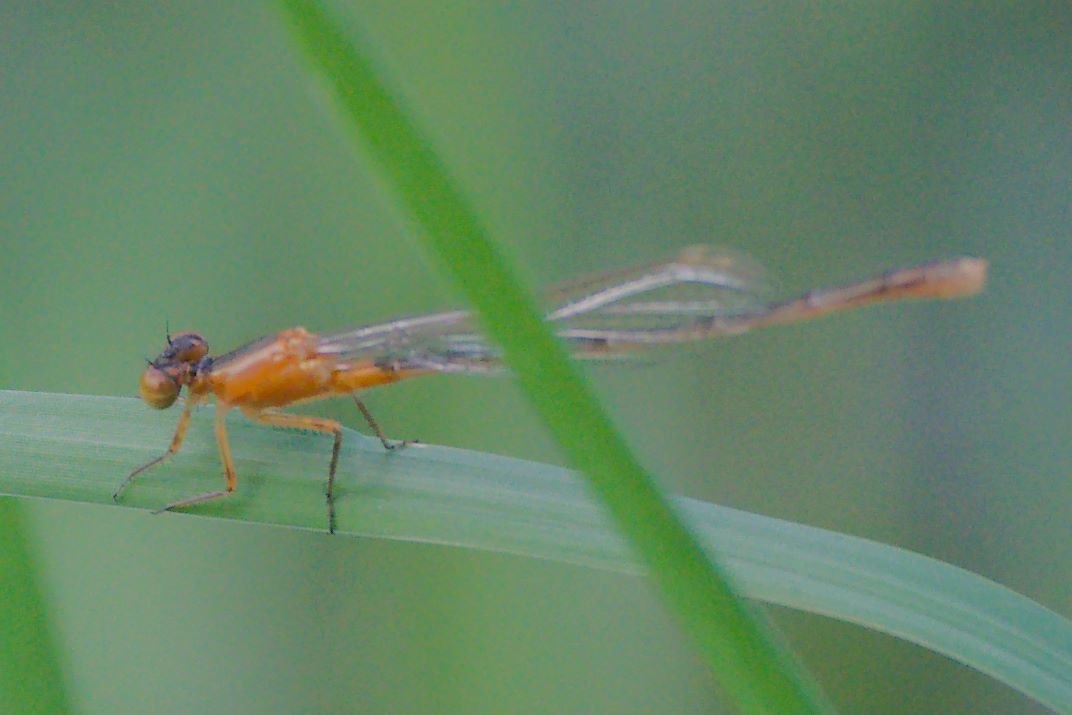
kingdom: Animalia
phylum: Arthropoda
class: Insecta
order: Odonata
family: Coenagrionidae
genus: Ischnura
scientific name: Ischnura ramburii
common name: Rambur's forktail
